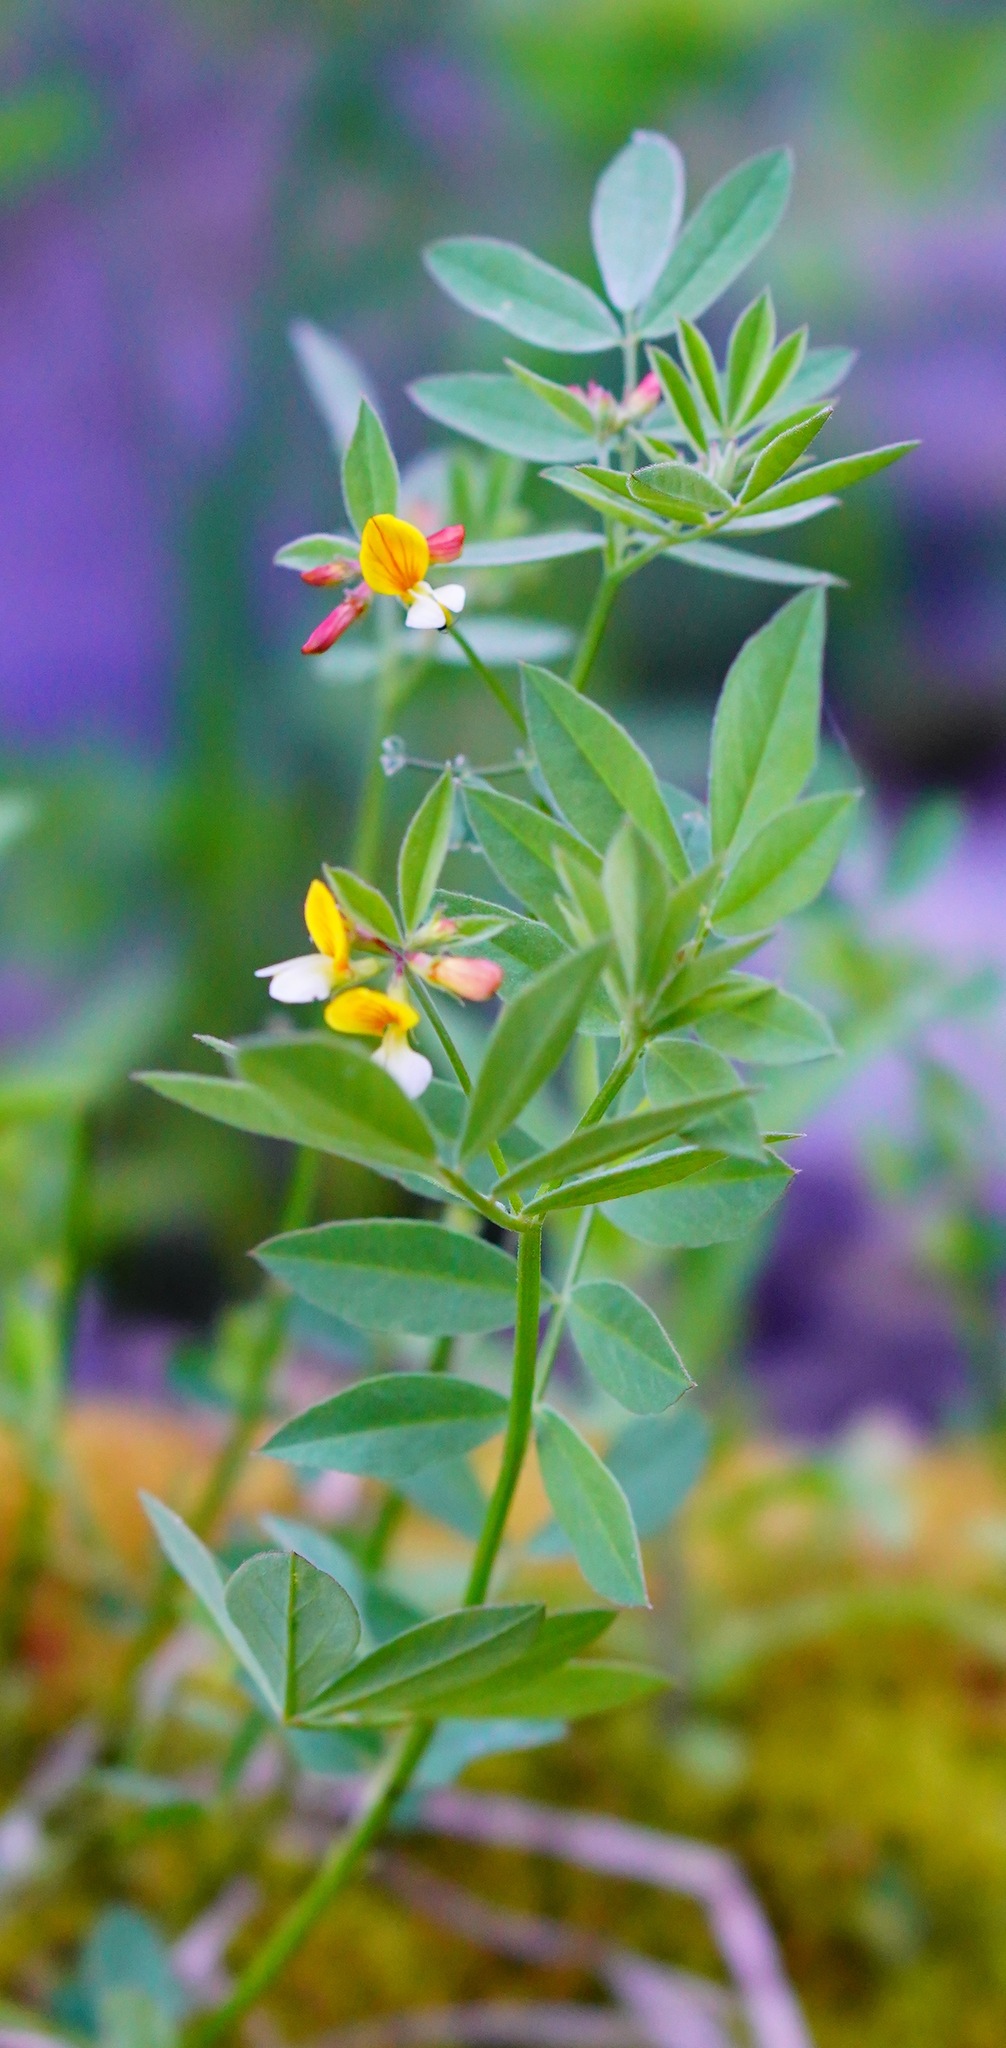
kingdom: Plantae
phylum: Tracheophyta
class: Magnoliopsida
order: Fabales
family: Fabaceae
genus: Hosackia
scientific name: Hosackia oblongifolia
